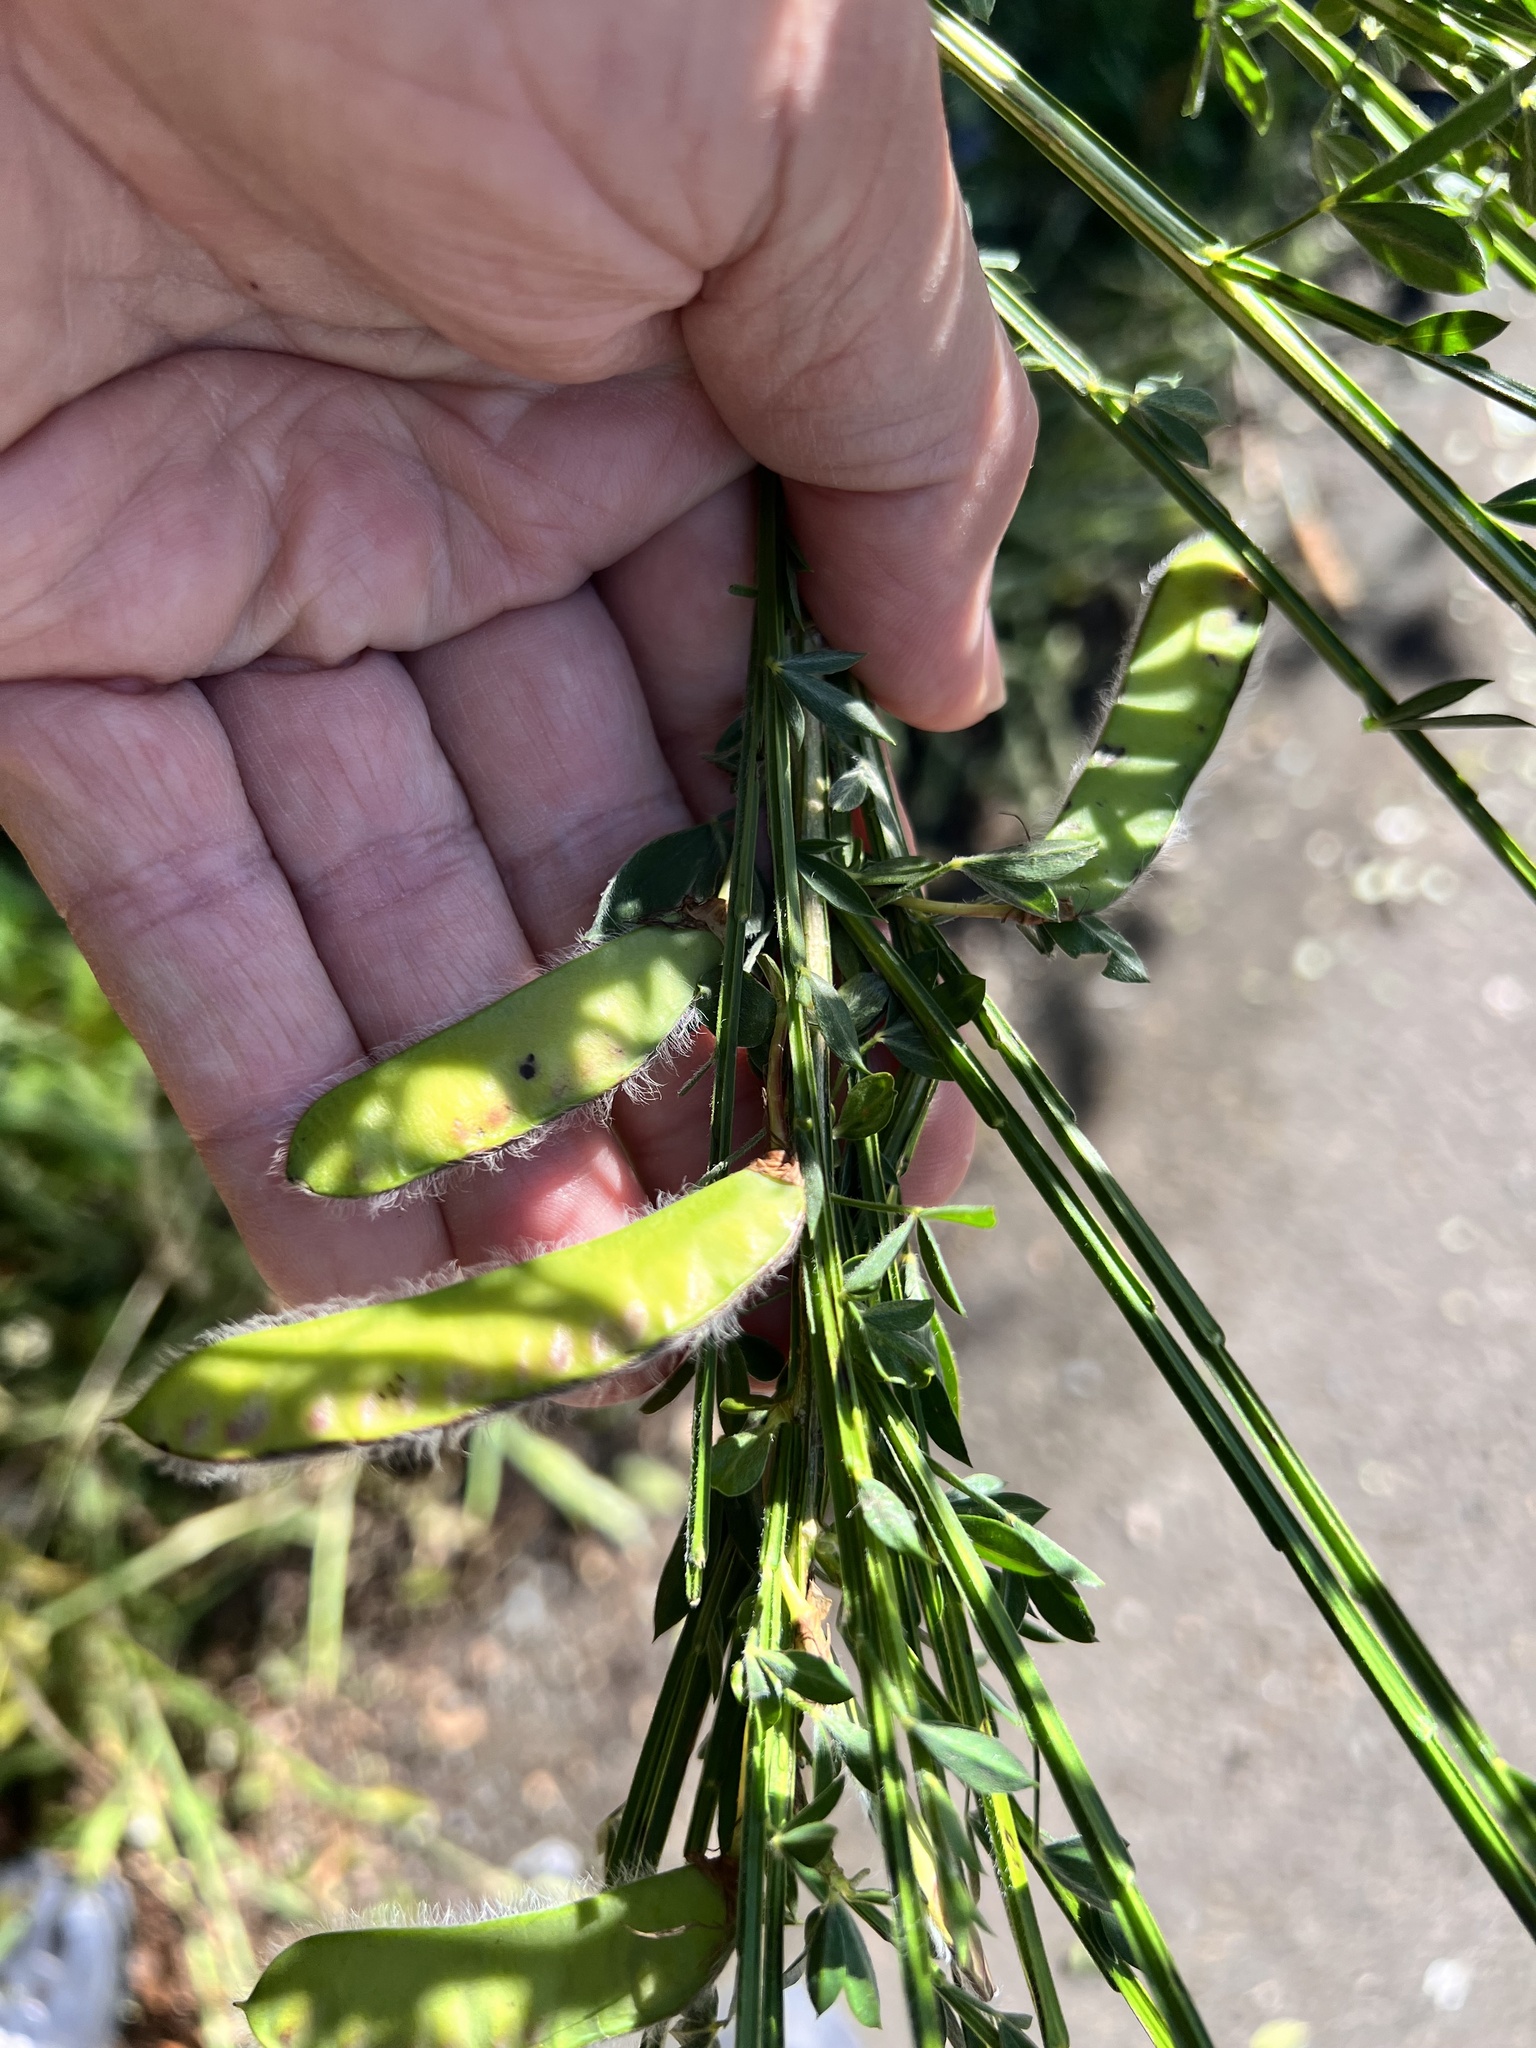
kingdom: Plantae
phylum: Tracheophyta
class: Magnoliopsida
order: Fabales
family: Fabaceae
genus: Cytisus
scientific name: Cytisus scoparius
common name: Scotch broom
